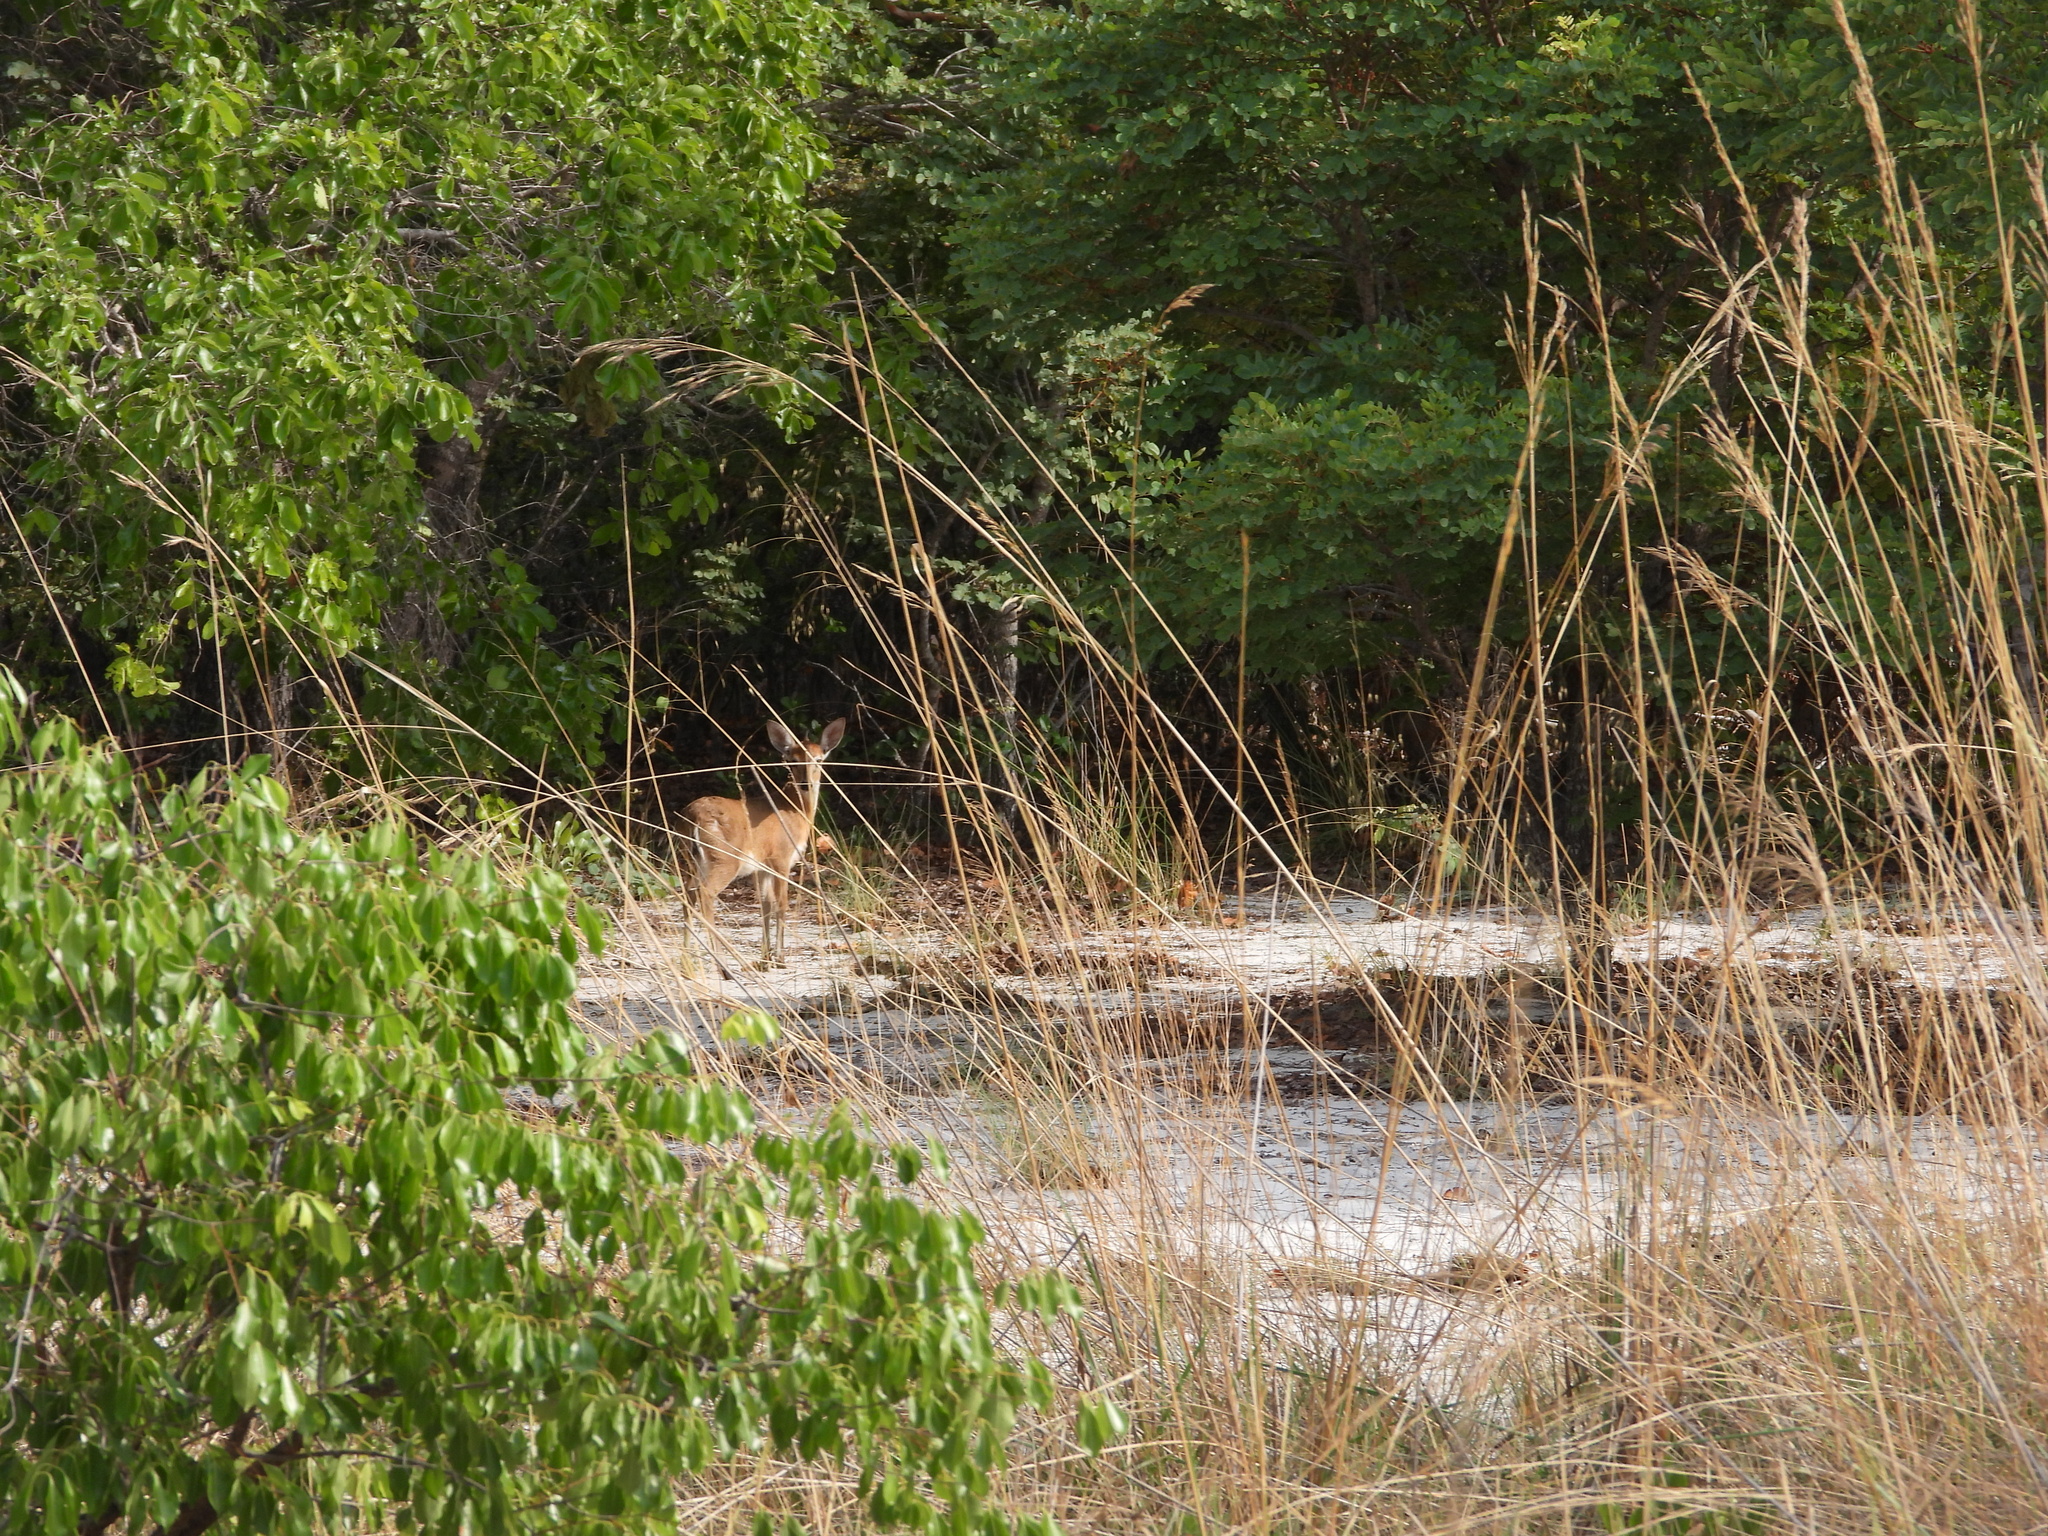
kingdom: Animalia
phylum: Chordata
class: Mammalia
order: Artiodactyla
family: Bovidae
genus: Sylvicapra
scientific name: Sylvicapra grimmia
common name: Bush duiker
